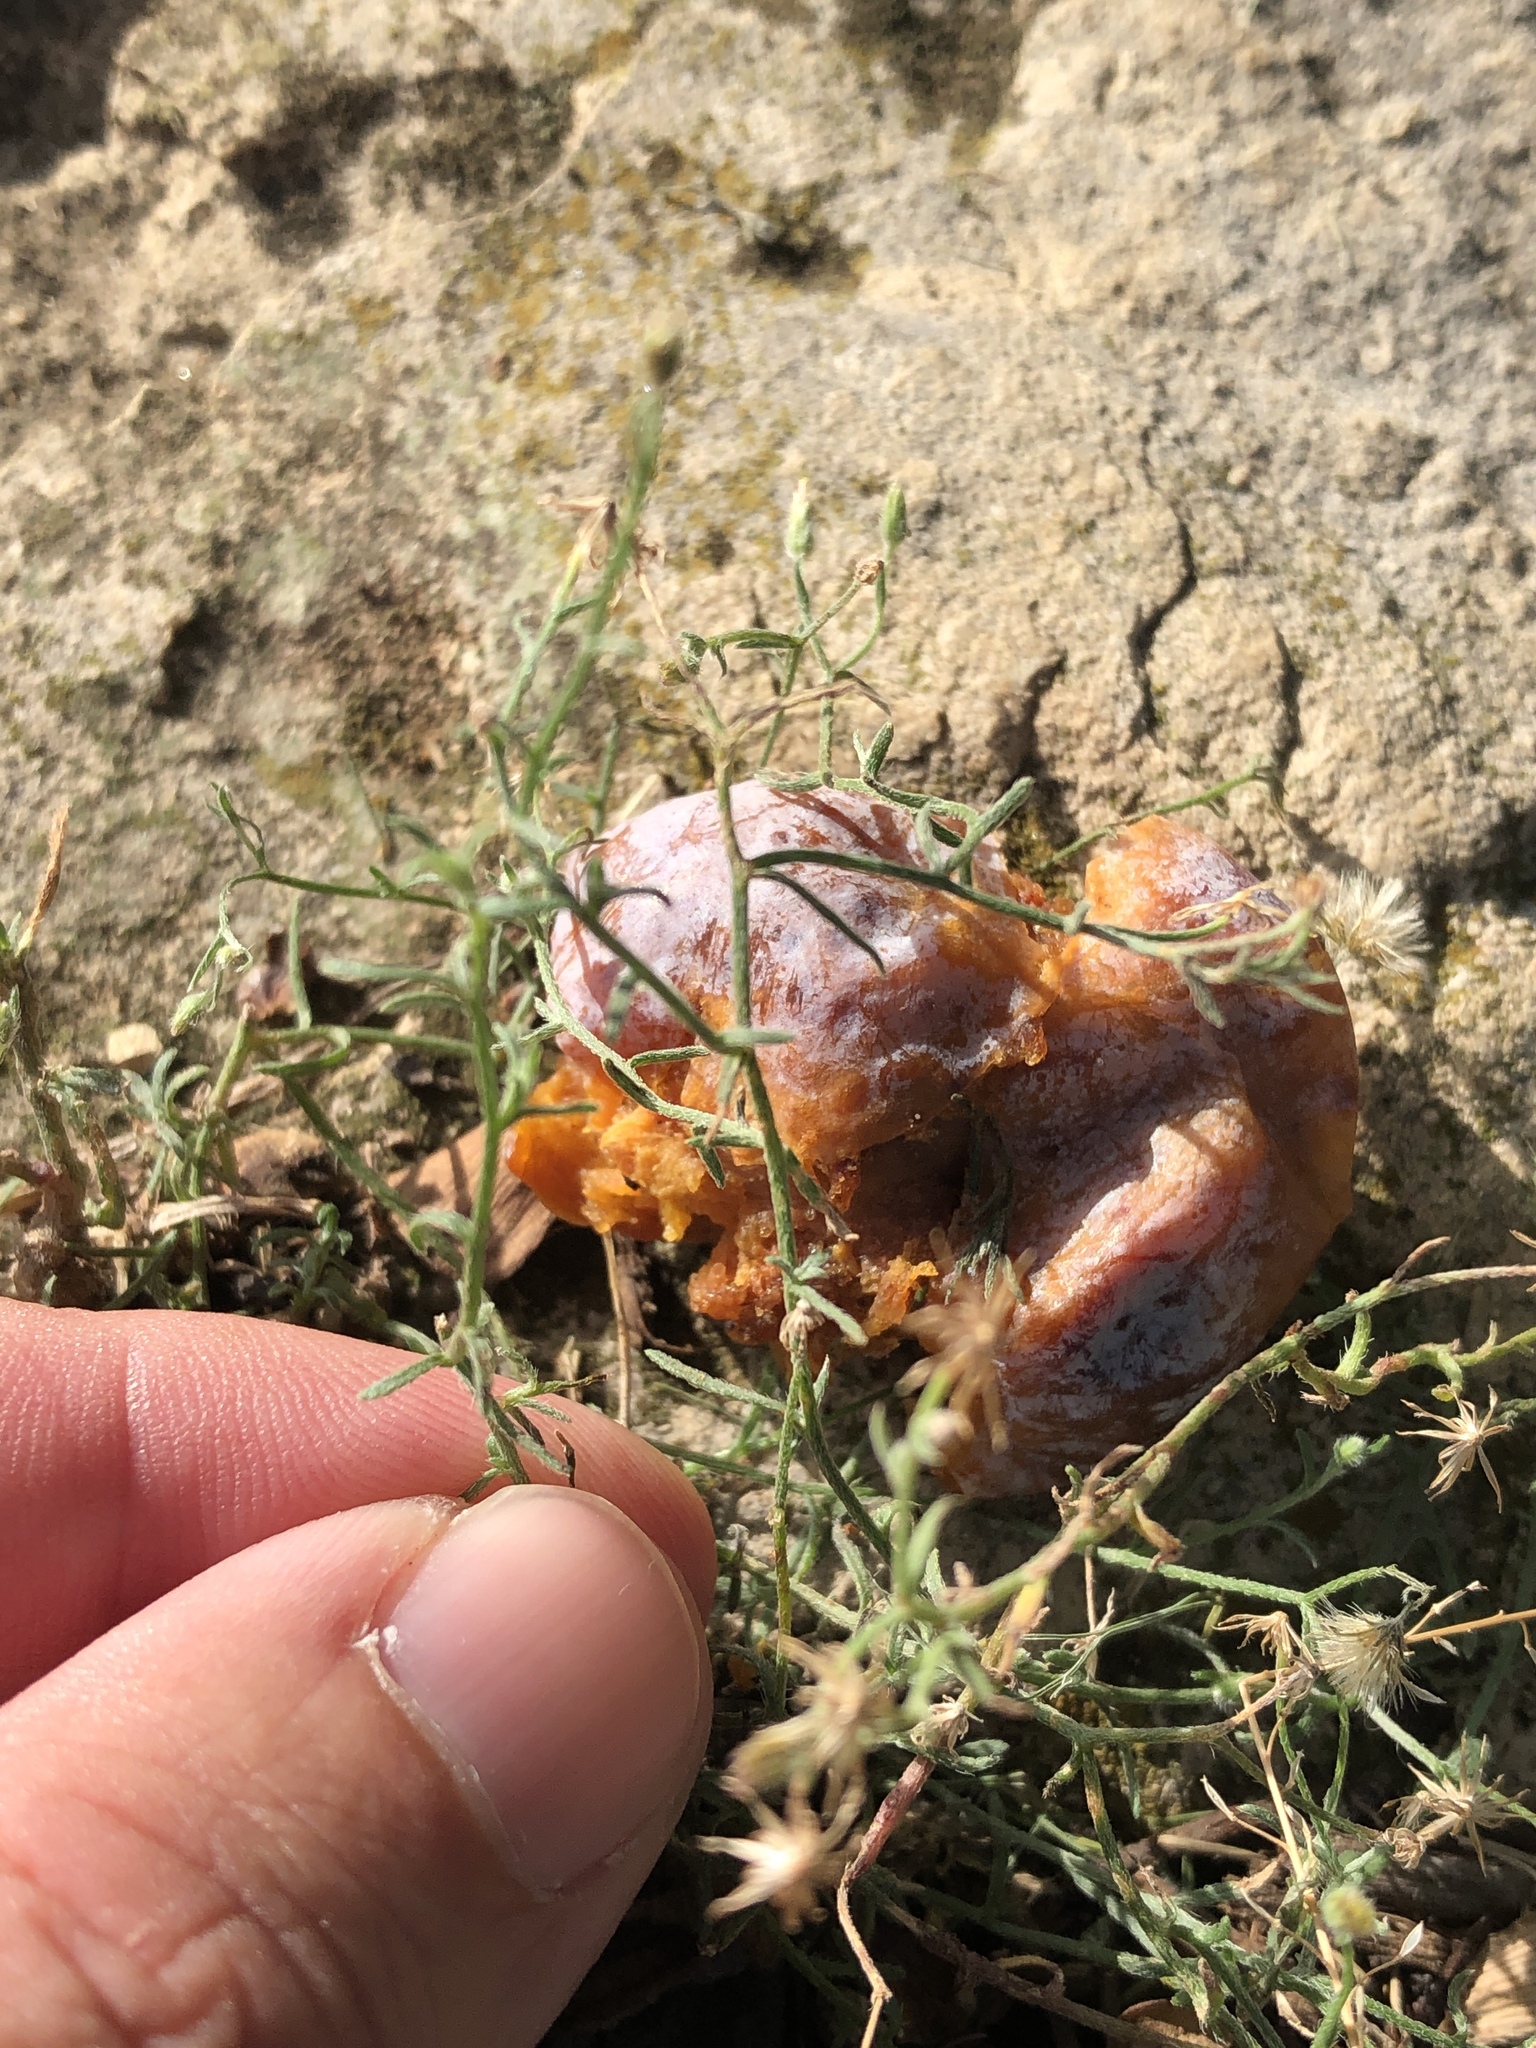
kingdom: Plantae
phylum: Tracheophyta
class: Magnoliopsida
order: Asterales
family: Asteraceae
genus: Erigeron
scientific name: Erigeron divaricatus
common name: Dwarf conyza
